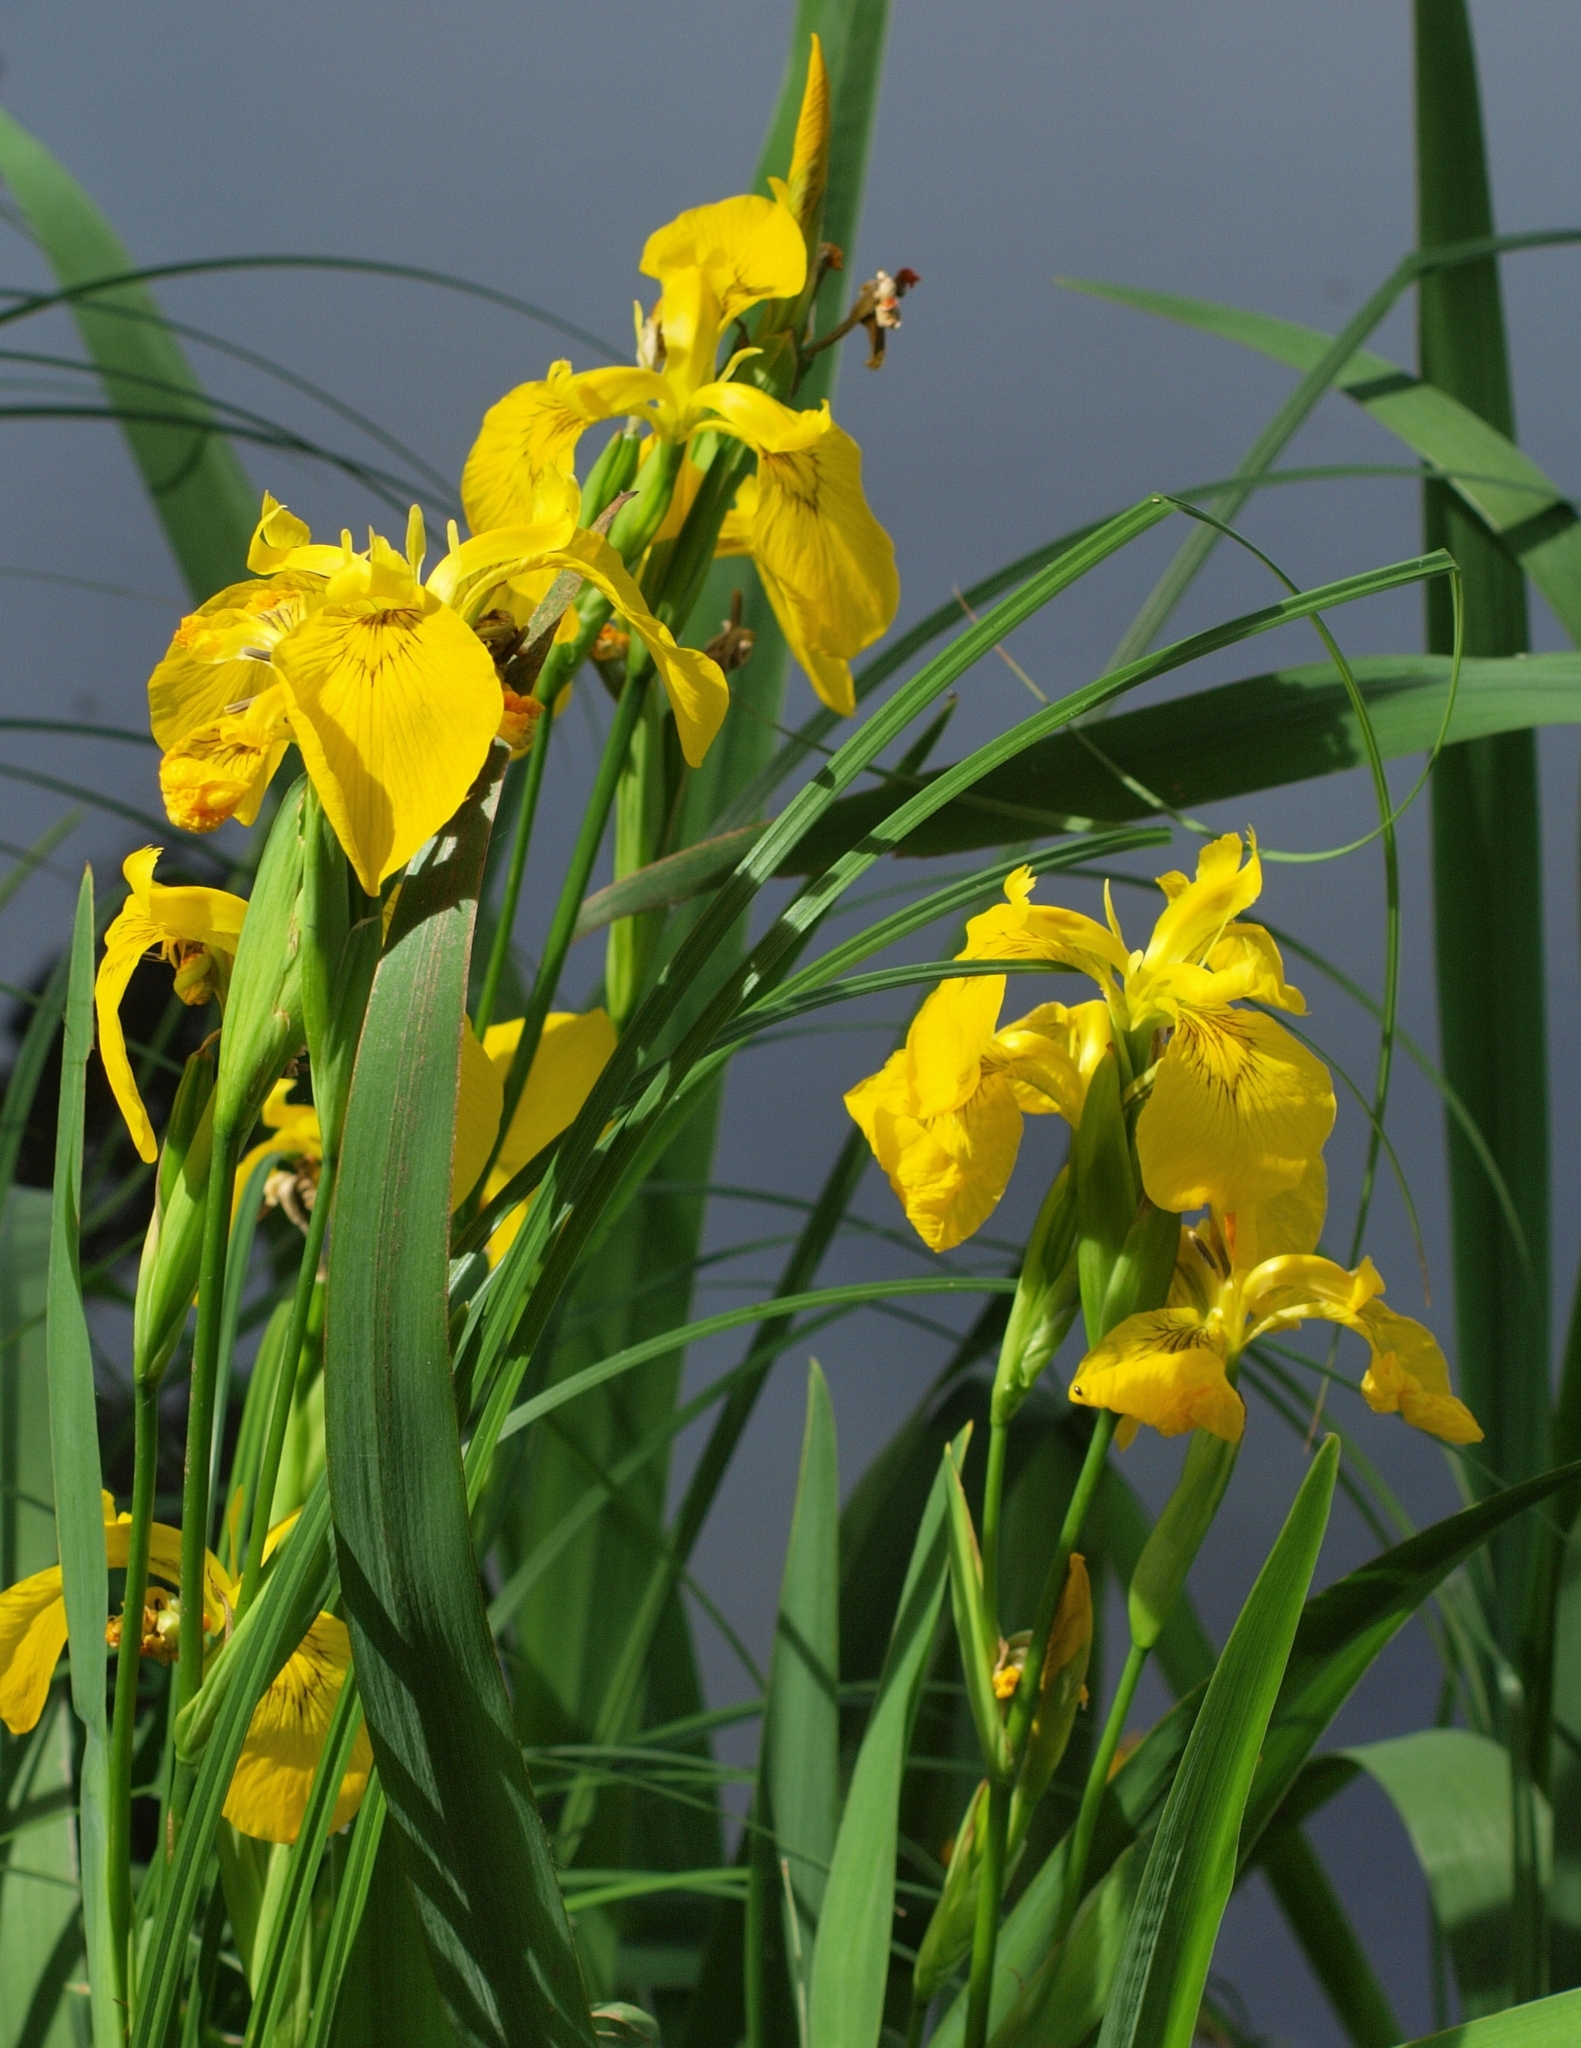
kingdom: Plantae
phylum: Tracheophyta
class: Liliopsida
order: Asparagales
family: Iridaceae
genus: Iris
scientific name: Iris pseudacorus
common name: Yellow flag
